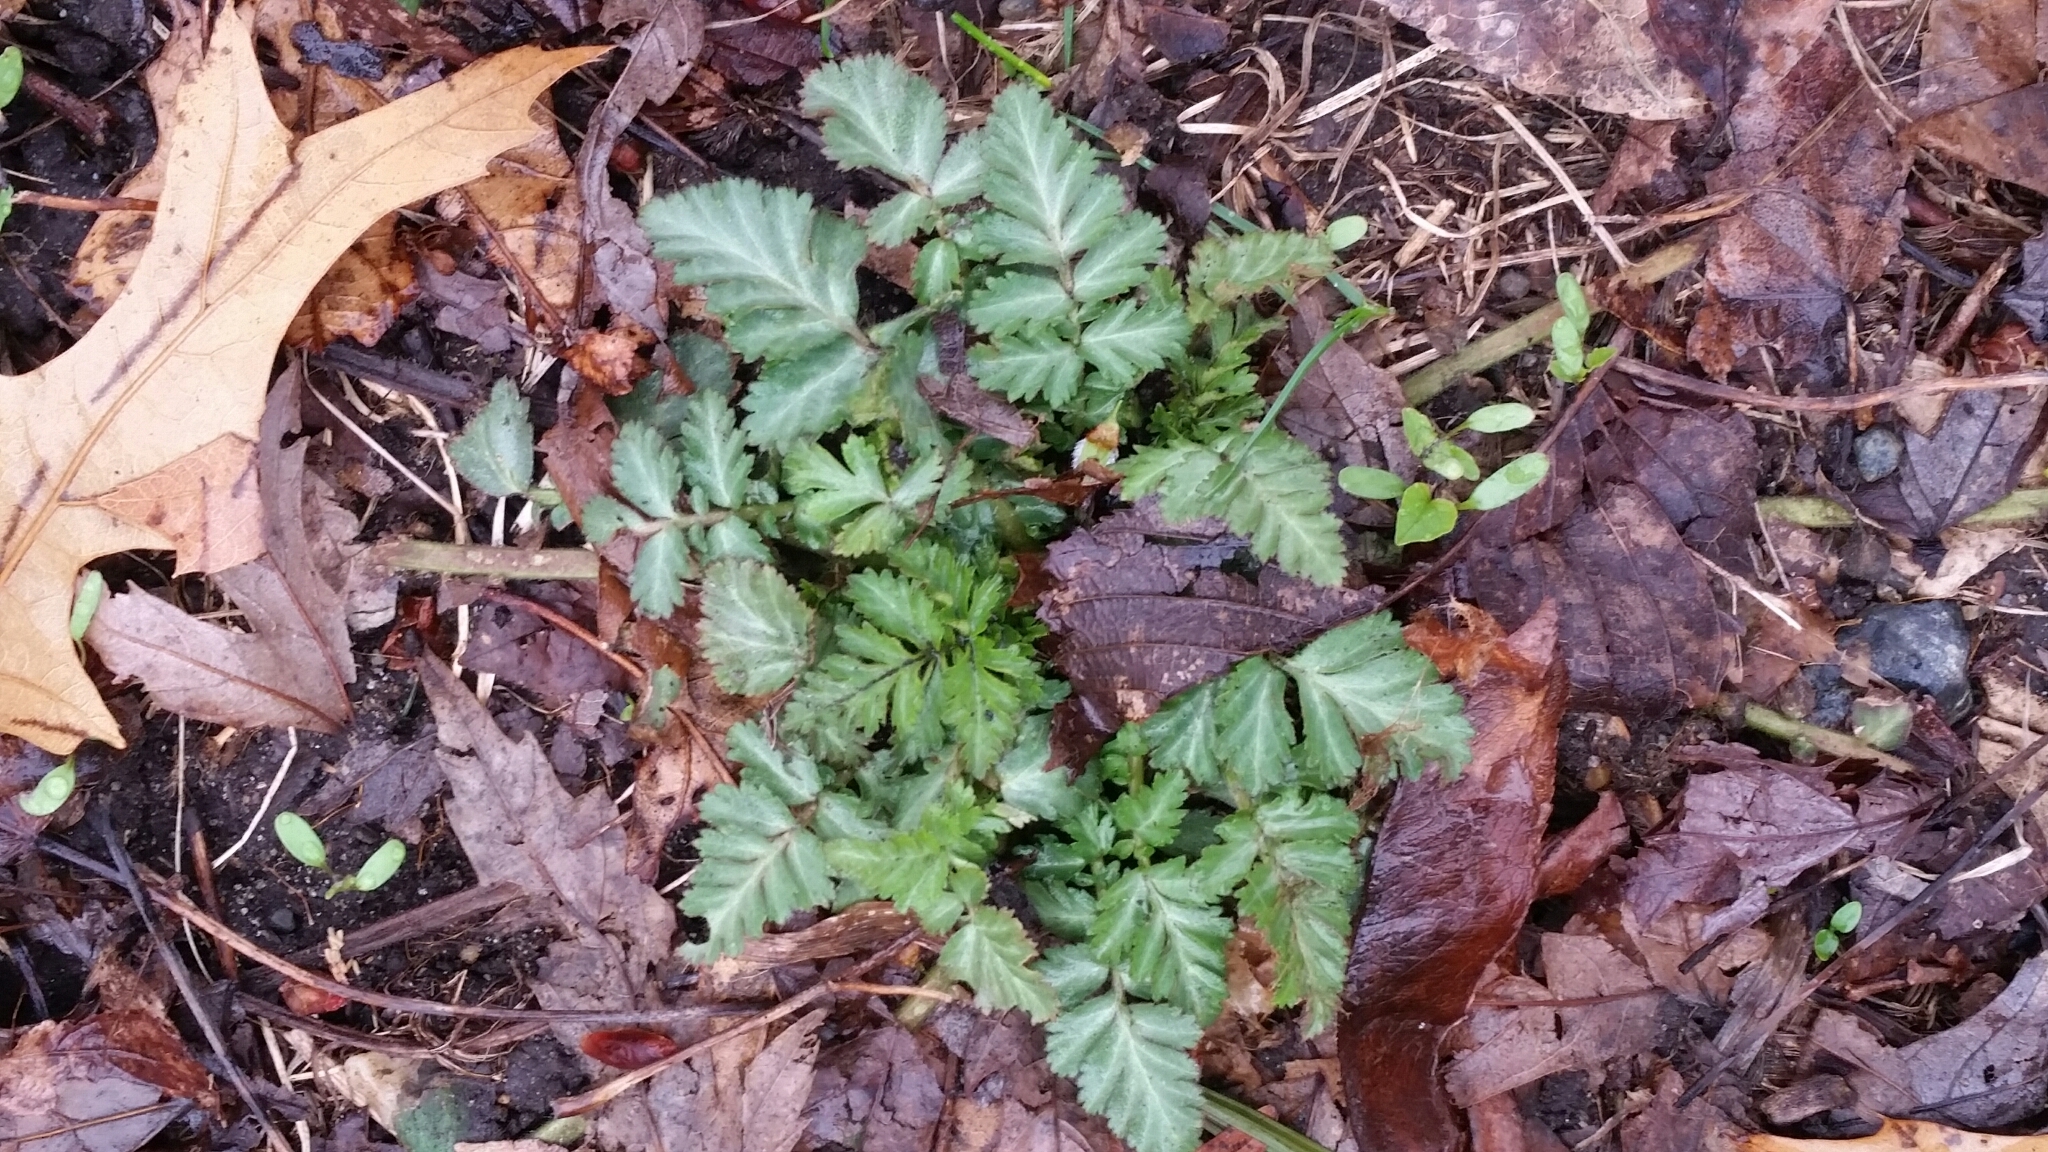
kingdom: Plantae
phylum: Tracheophyta
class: Magnoliopsida
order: Rosales
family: Rosaceae
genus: Geum
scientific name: Geum canadense
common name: White avens
